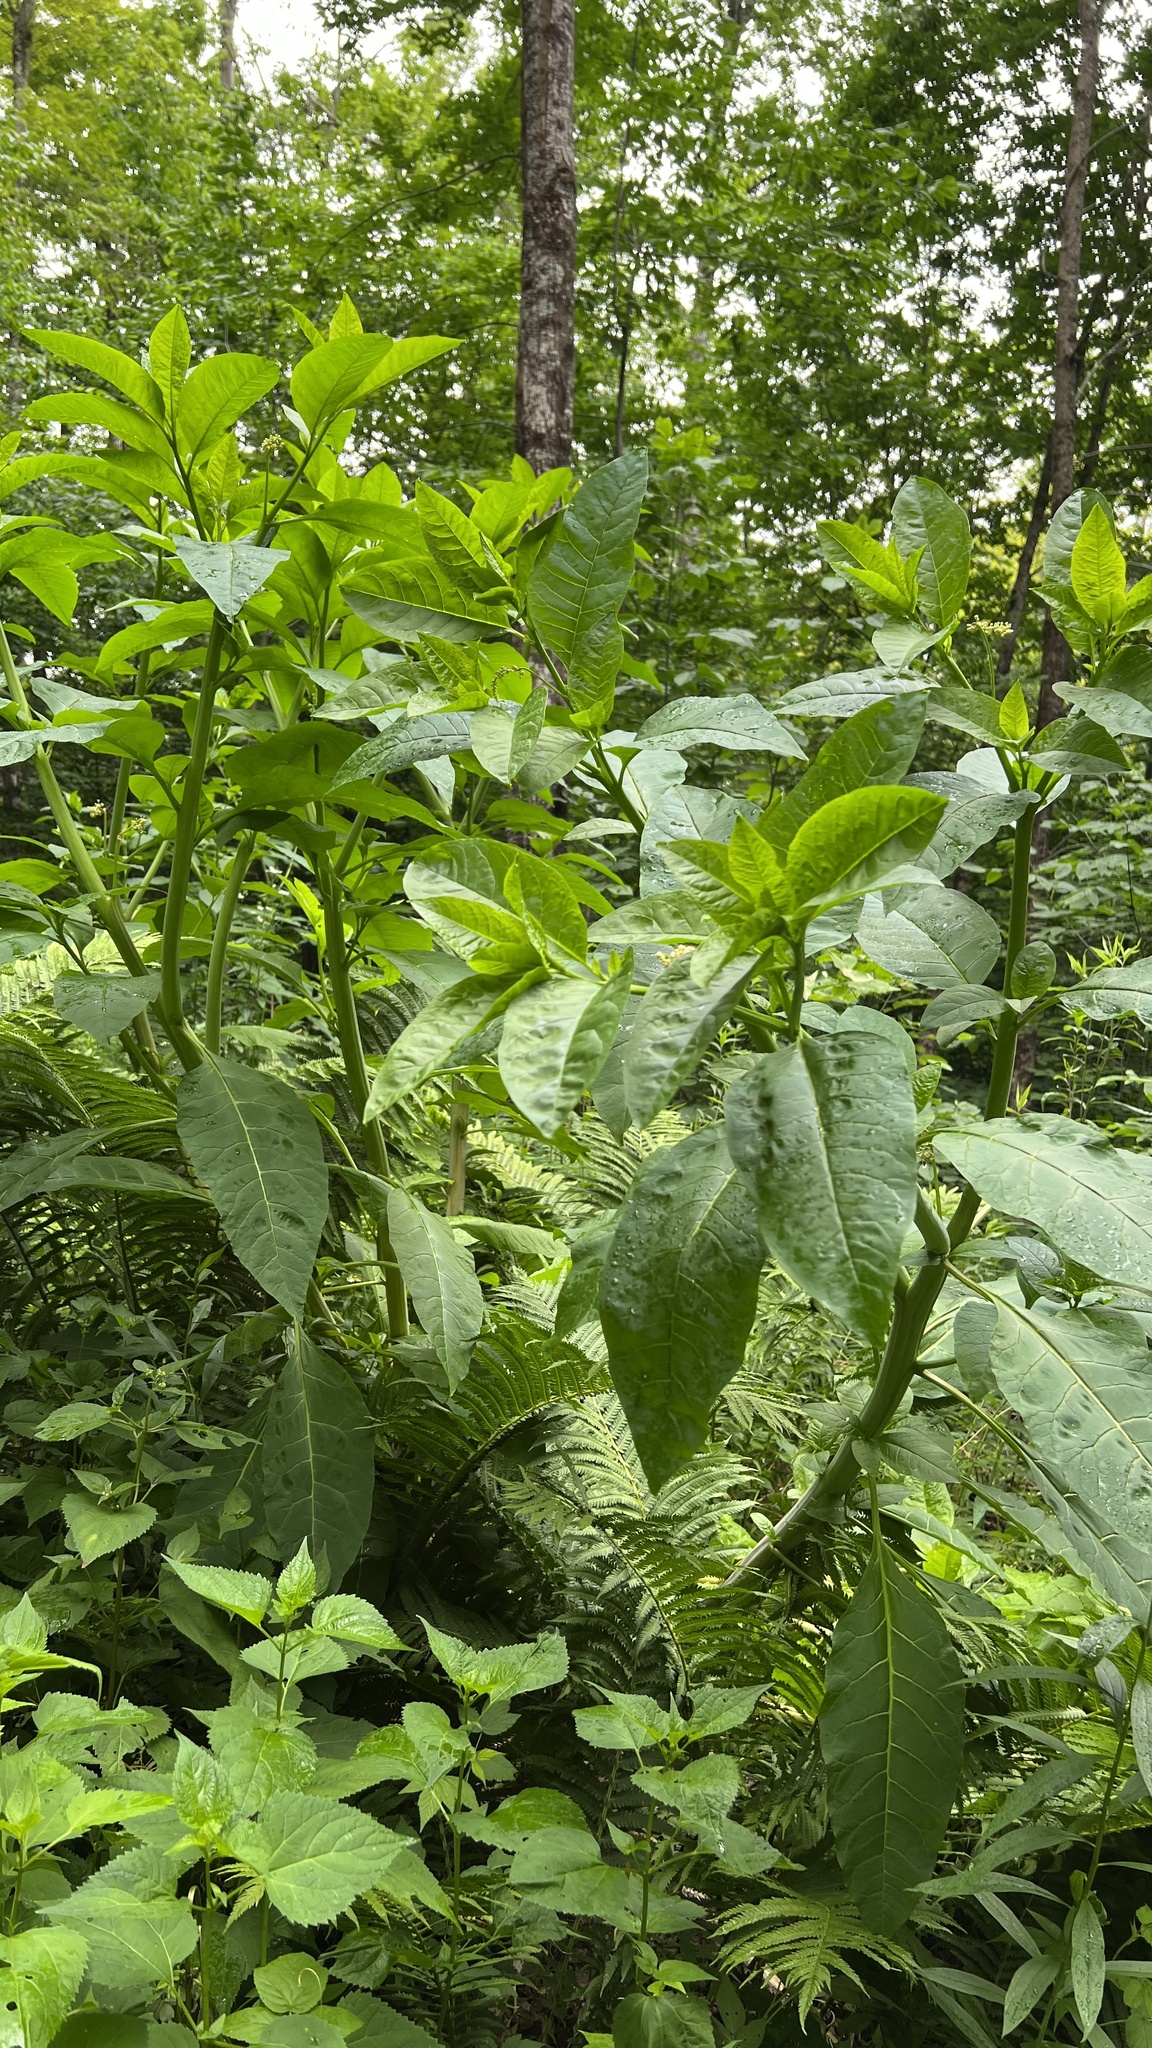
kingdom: Plantae
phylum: Tracheophyta
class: Magnoliopsida
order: Caryophyllales
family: Phytolaccaceae
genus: Phytolacca
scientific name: Phytolacca americana
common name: American pokeweed
